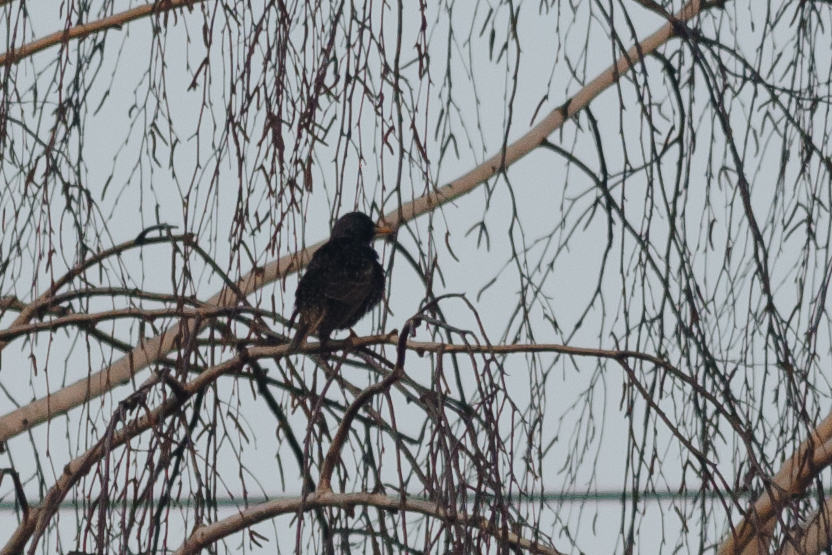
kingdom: Animalia
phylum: Chordata
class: Aves
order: Passeriformes
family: Sturnidae
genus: Sturnus
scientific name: Sturnus vulgaris
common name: Common starling
